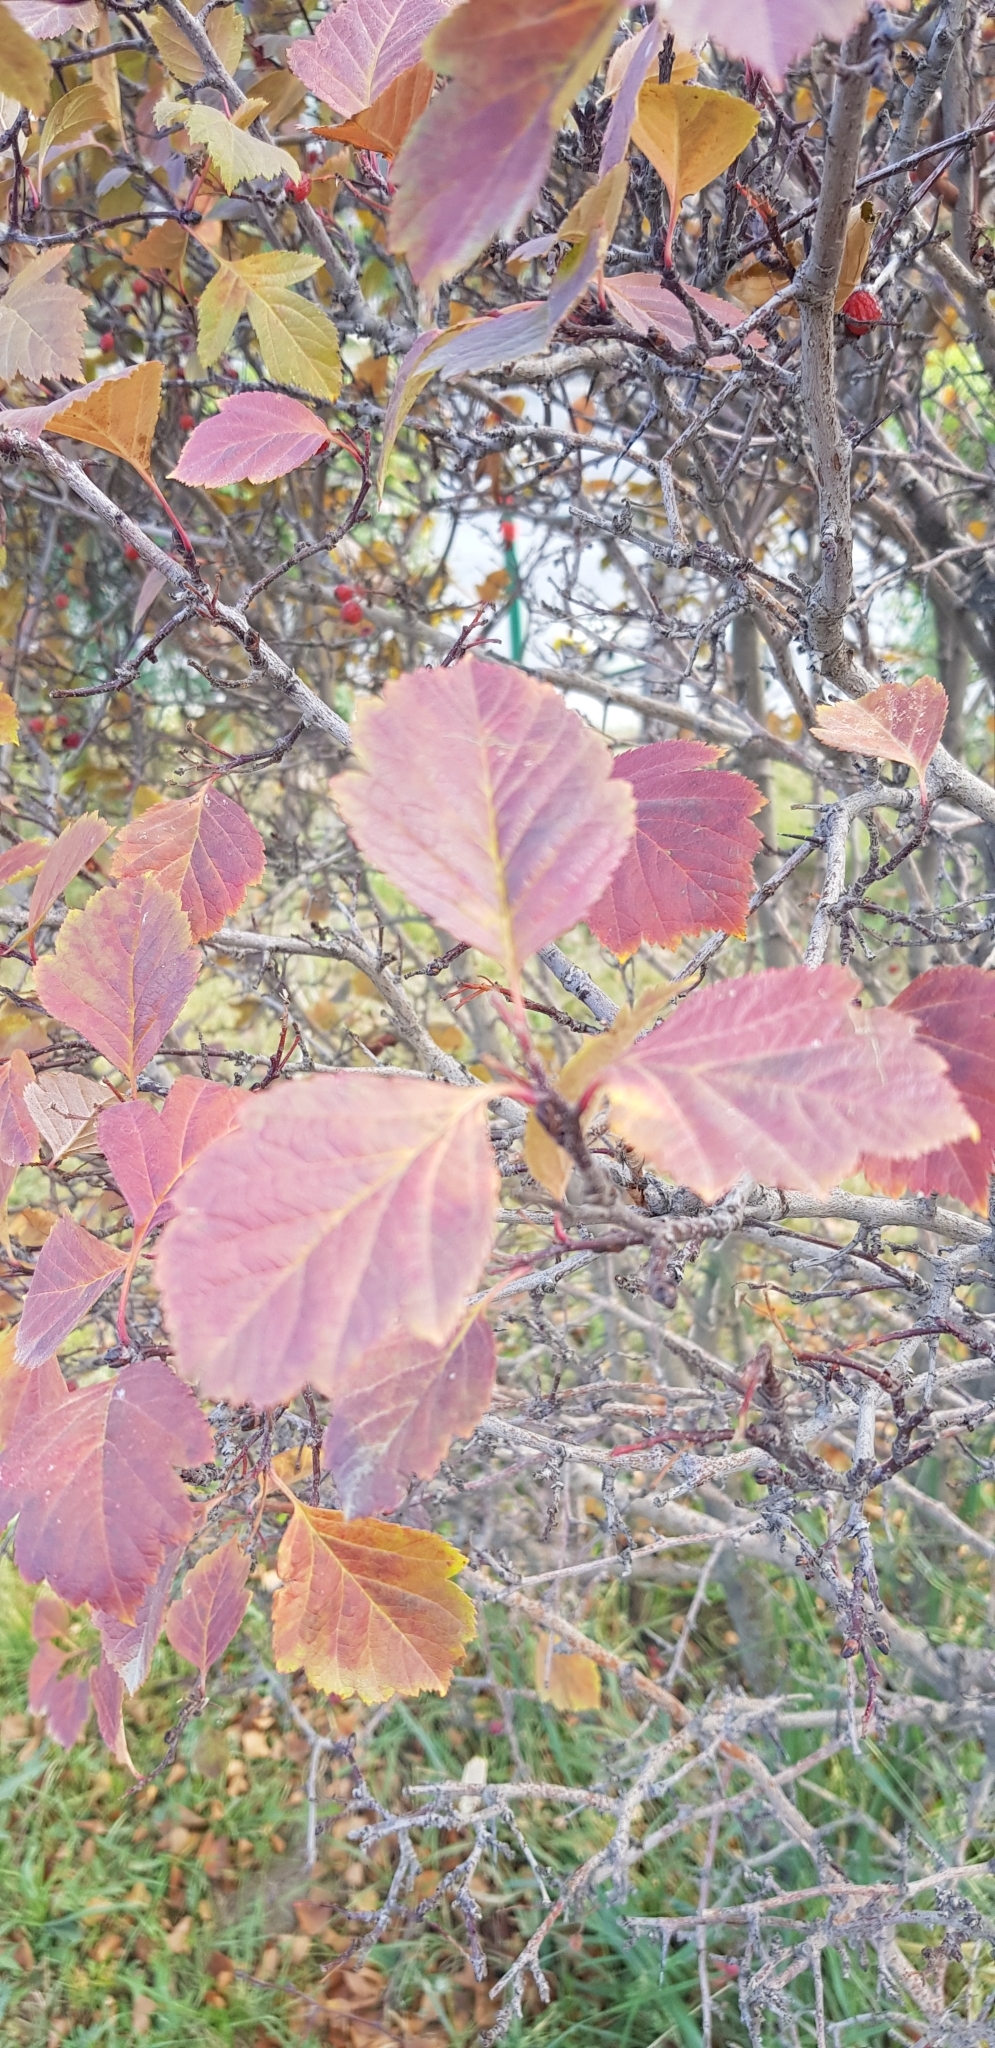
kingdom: Plantae
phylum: Tracheophyta
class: Magnoliopsida
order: Rosales
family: Rosaceae
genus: Crataegus
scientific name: Crataegus sanguinea
